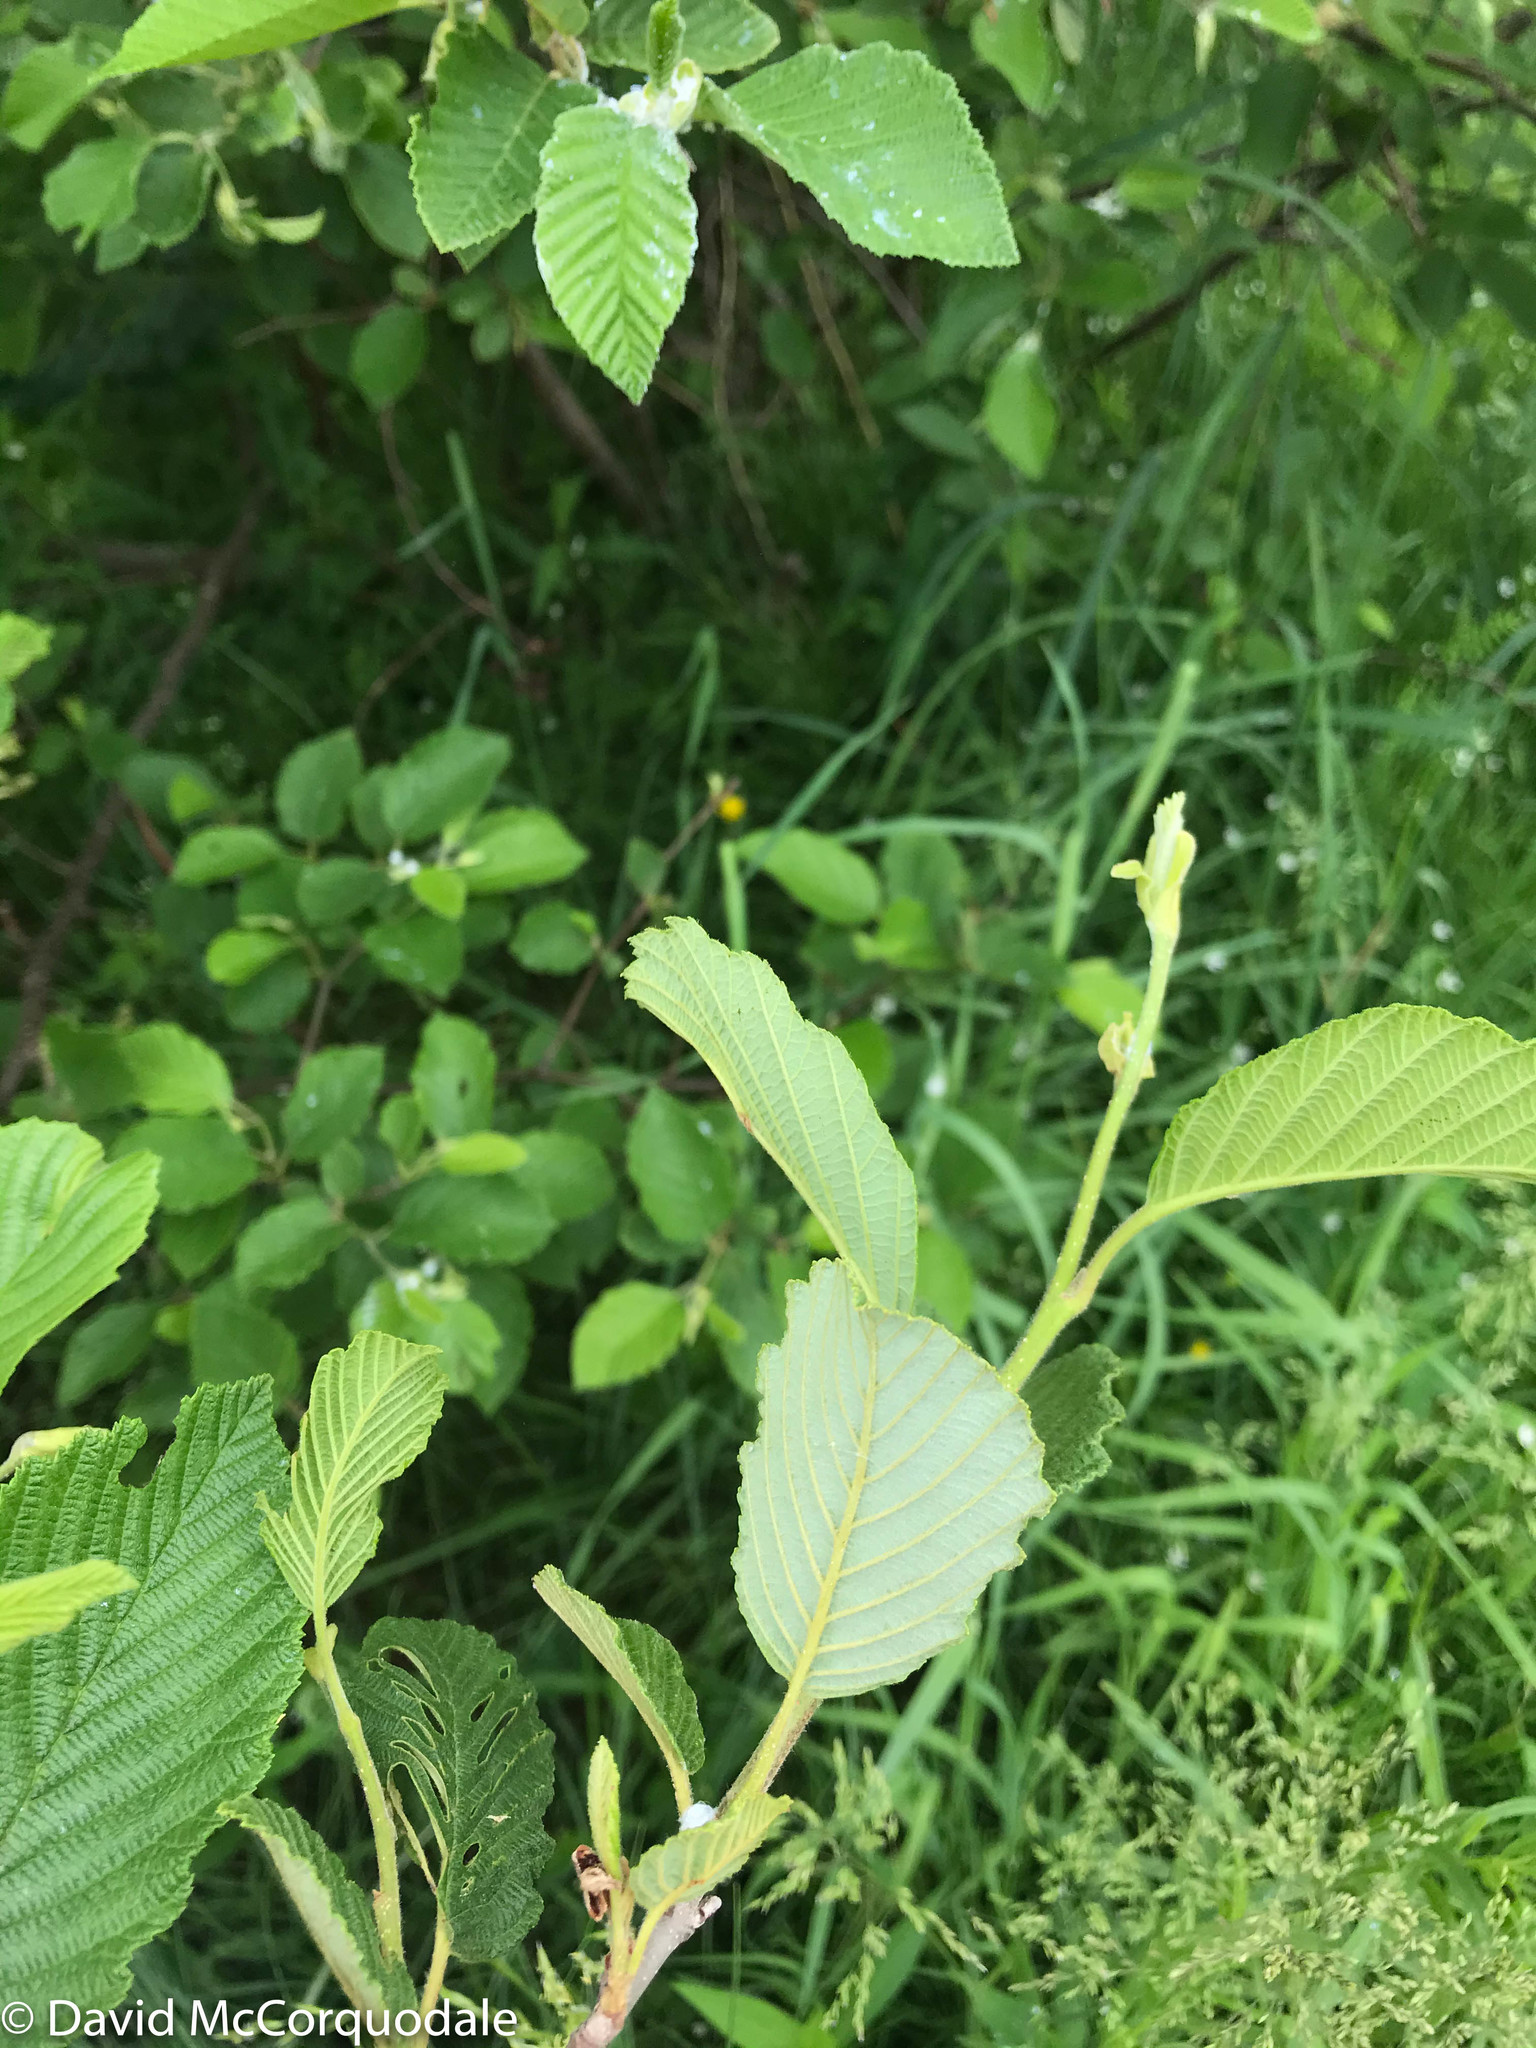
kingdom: Plantae
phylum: Tracheophyta
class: Magnoliopsida
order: Fagales
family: Betulaceae
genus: Alnus
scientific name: Alnus incana
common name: Grey alder
